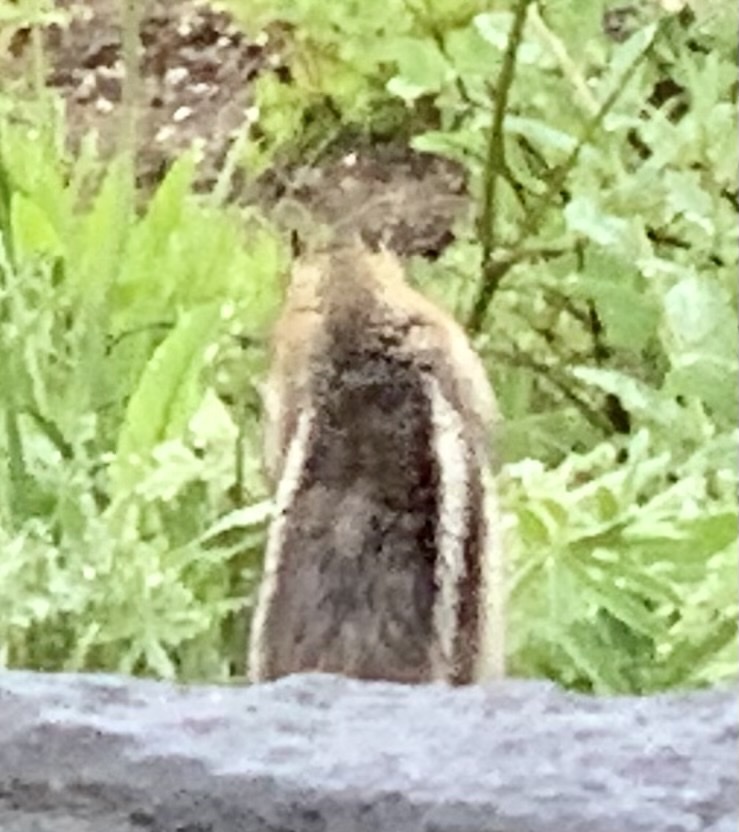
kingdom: Animalia
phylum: Chordata
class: Mammalia
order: Rodentia
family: Sciuridae
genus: Callospermophilus
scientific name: Callospermophilus saturatus
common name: Cascade golden-mantled ground squirrel
